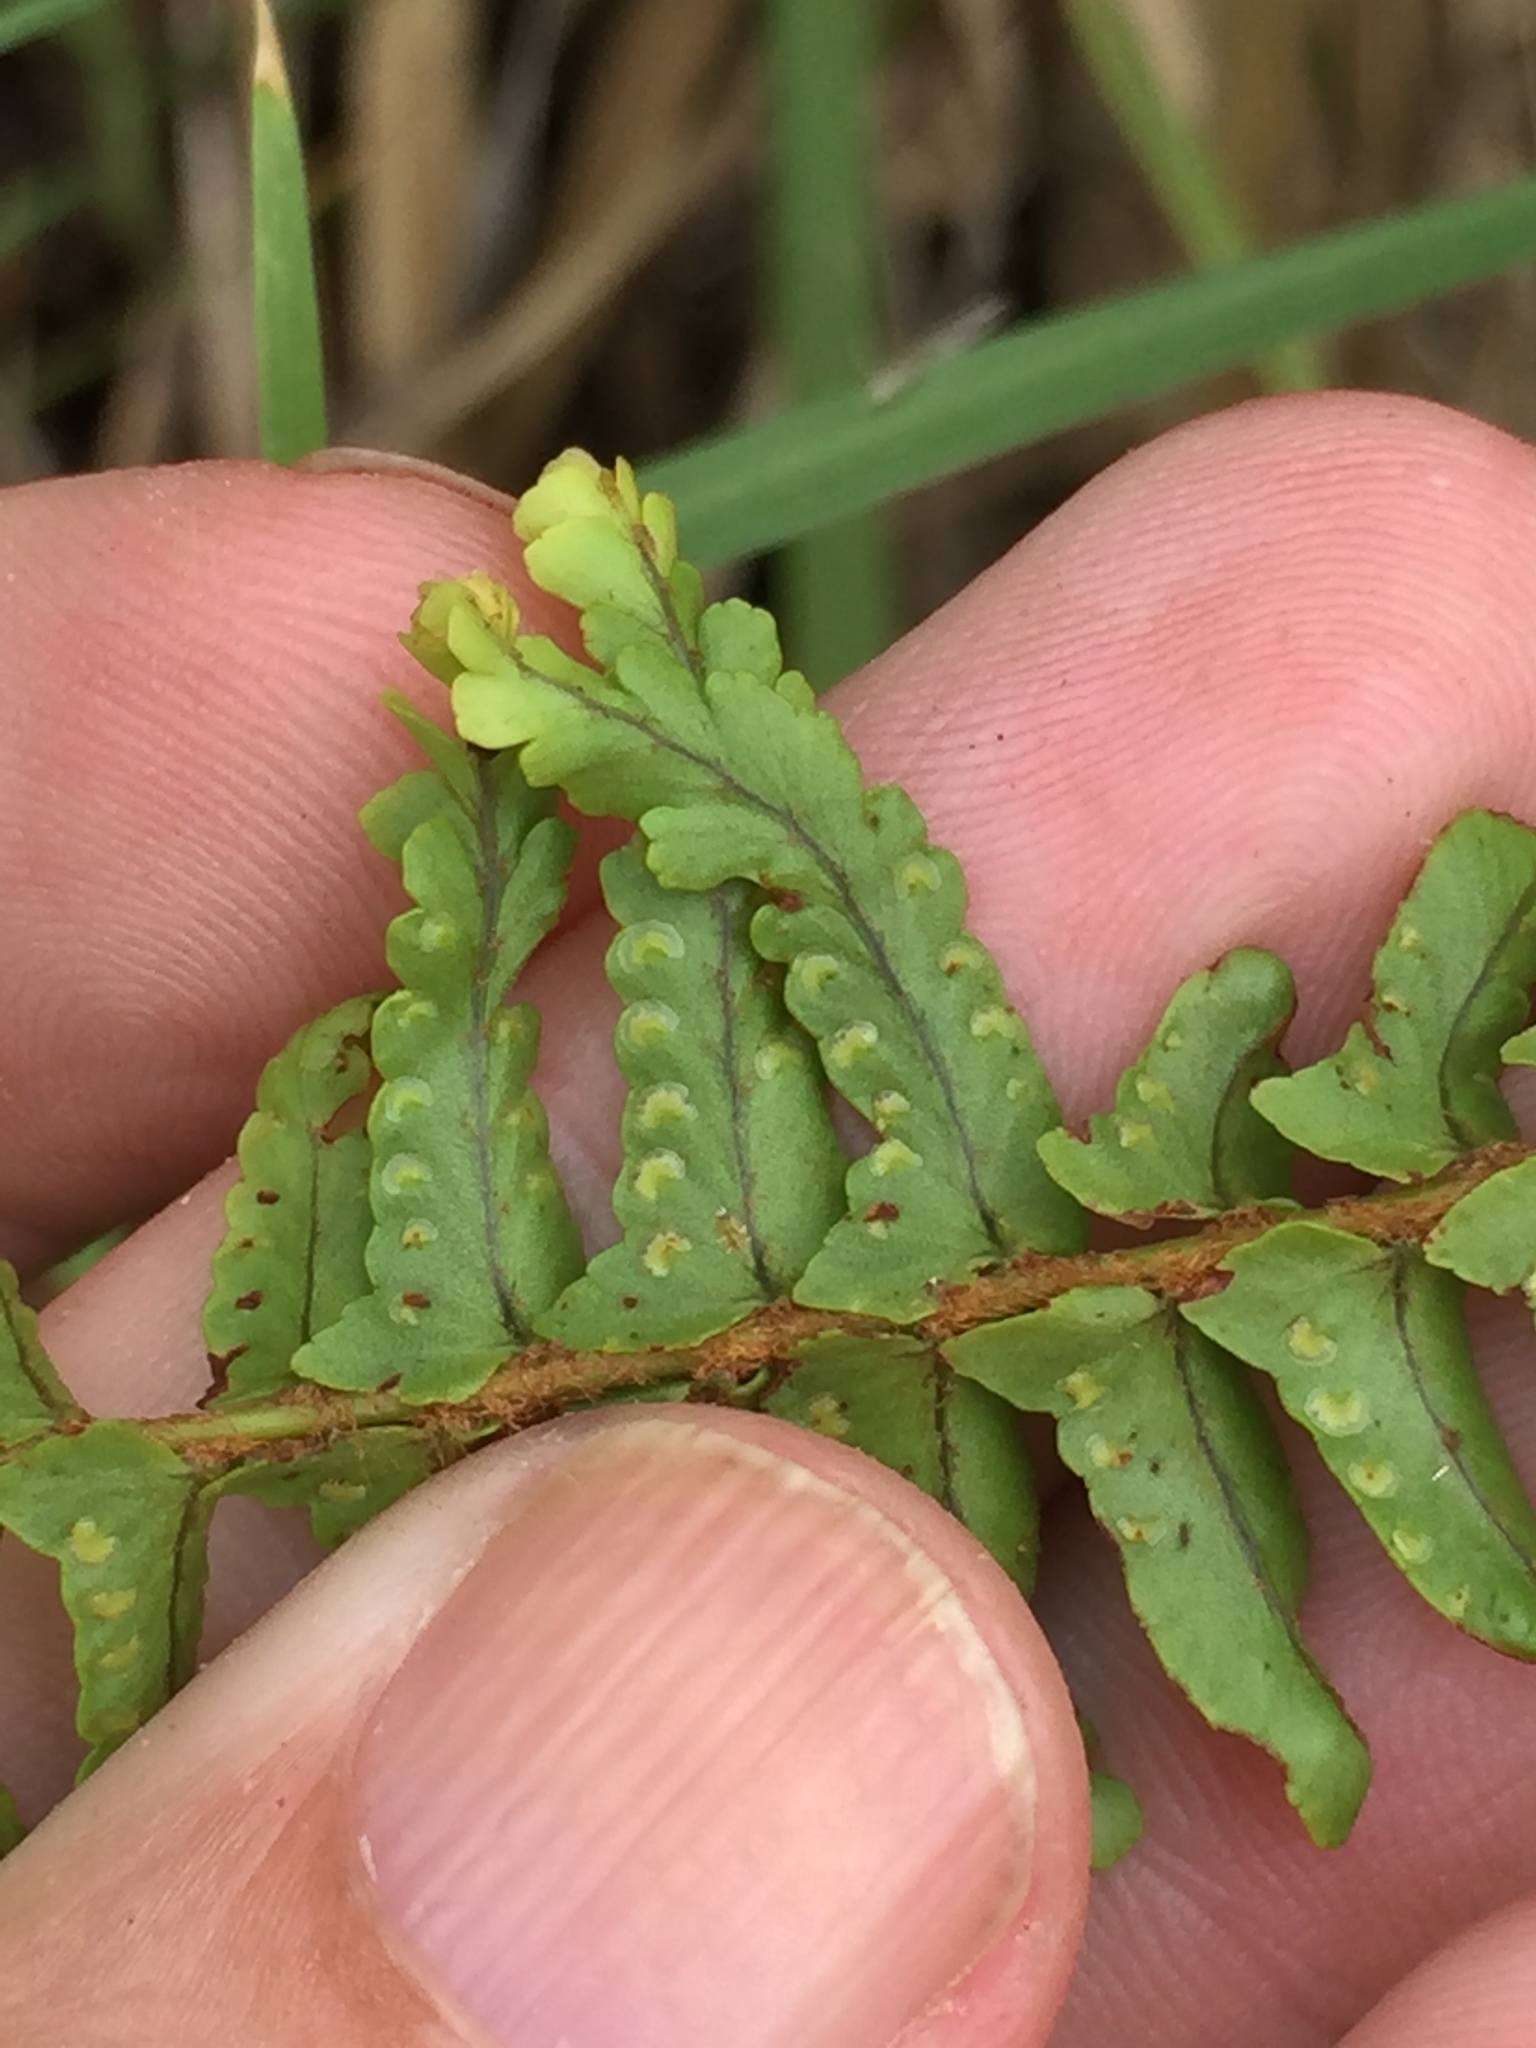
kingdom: Plantae
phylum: Tracheophyta
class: Polypodiopsida
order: Polypodiales
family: Nephrolepidaceae
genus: Nephrolepis
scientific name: Nephrolepis cordifolia
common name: Narrow swordfern
